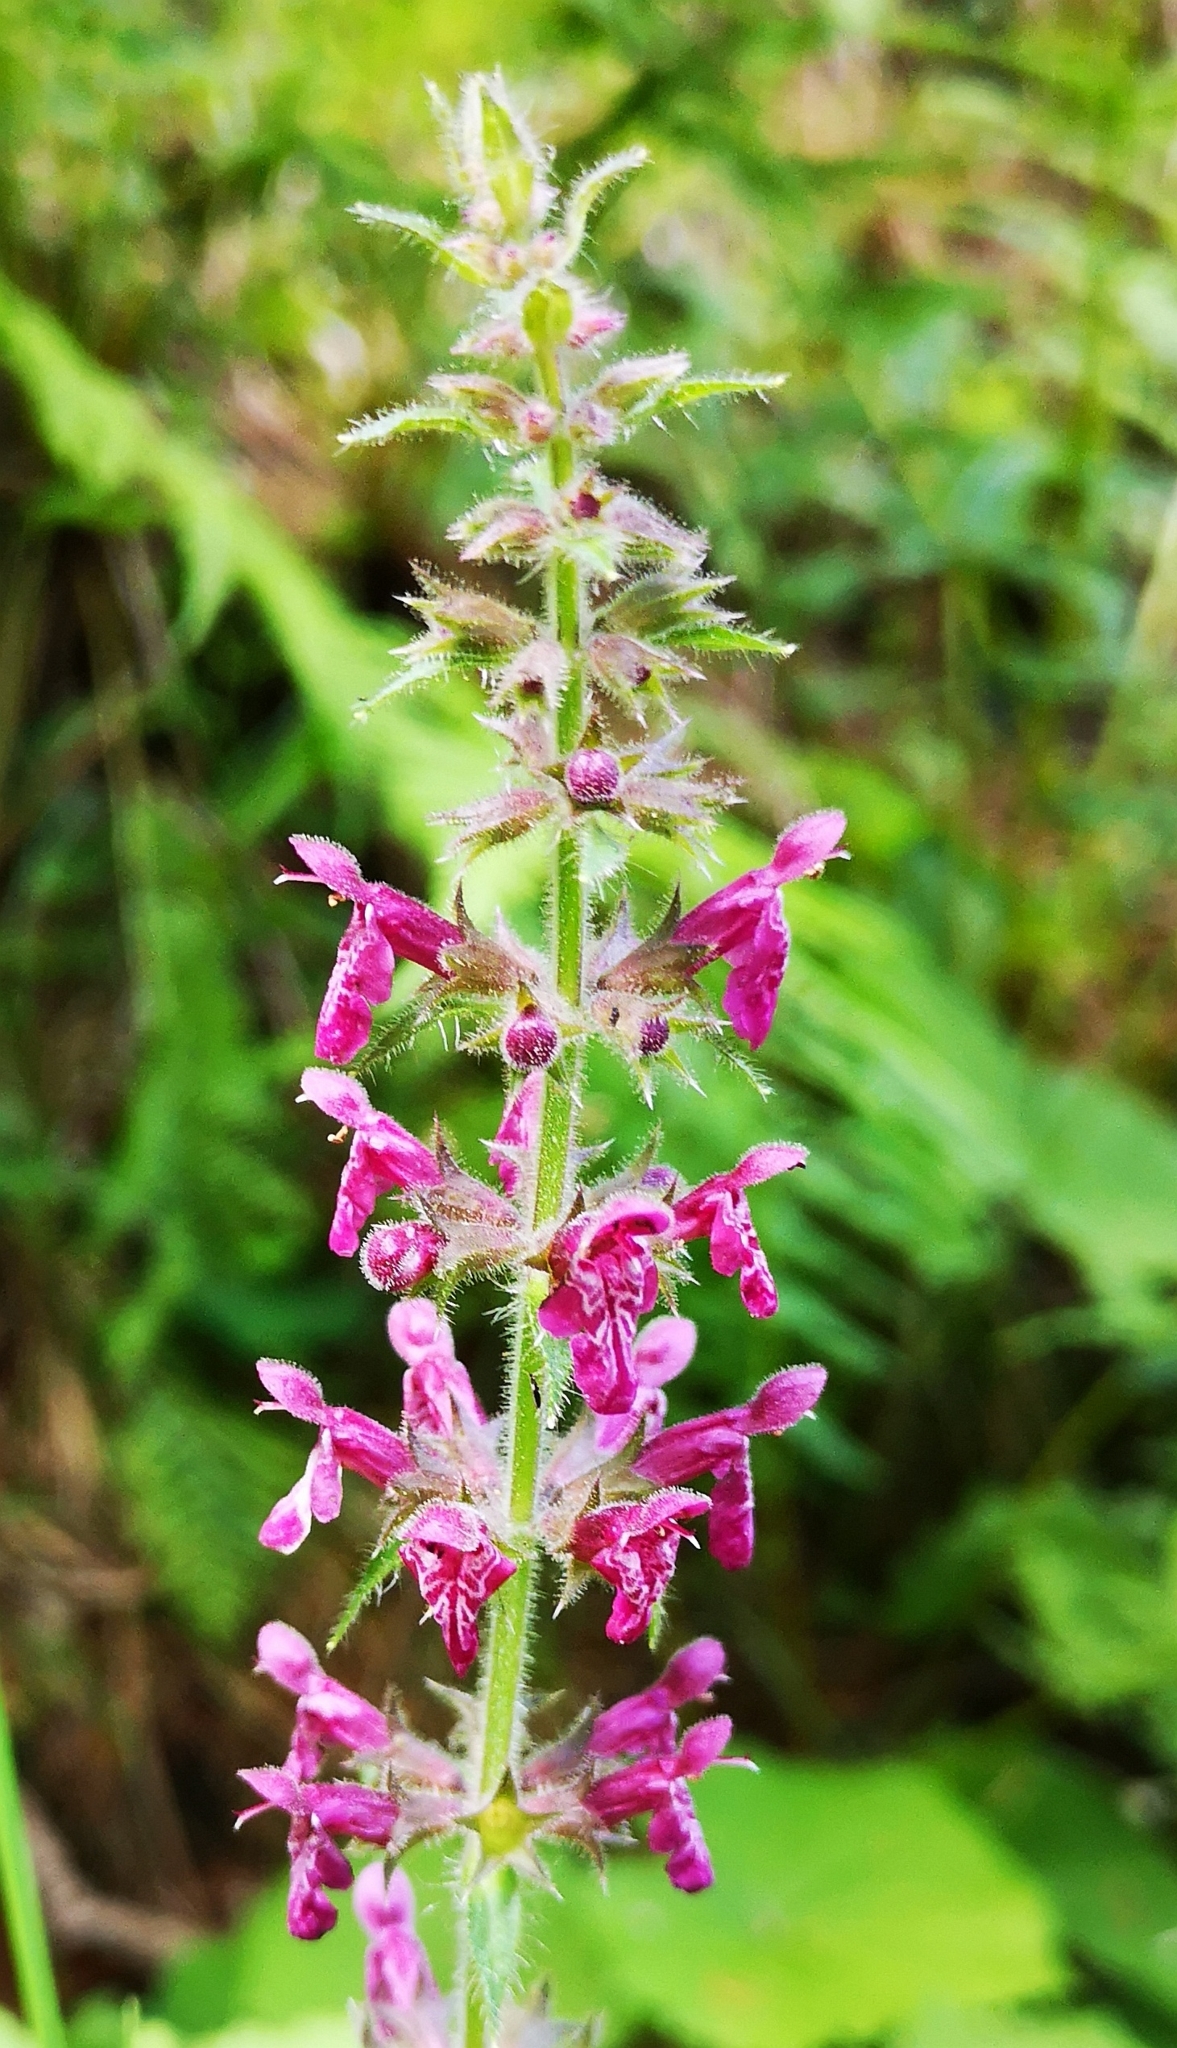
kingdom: Plantae
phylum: Tracheophyta
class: Magnoliopsida
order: Lamiales
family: Lamiaceae
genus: Stachys
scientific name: Stachys sylvatica
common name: Hedge woundwort
